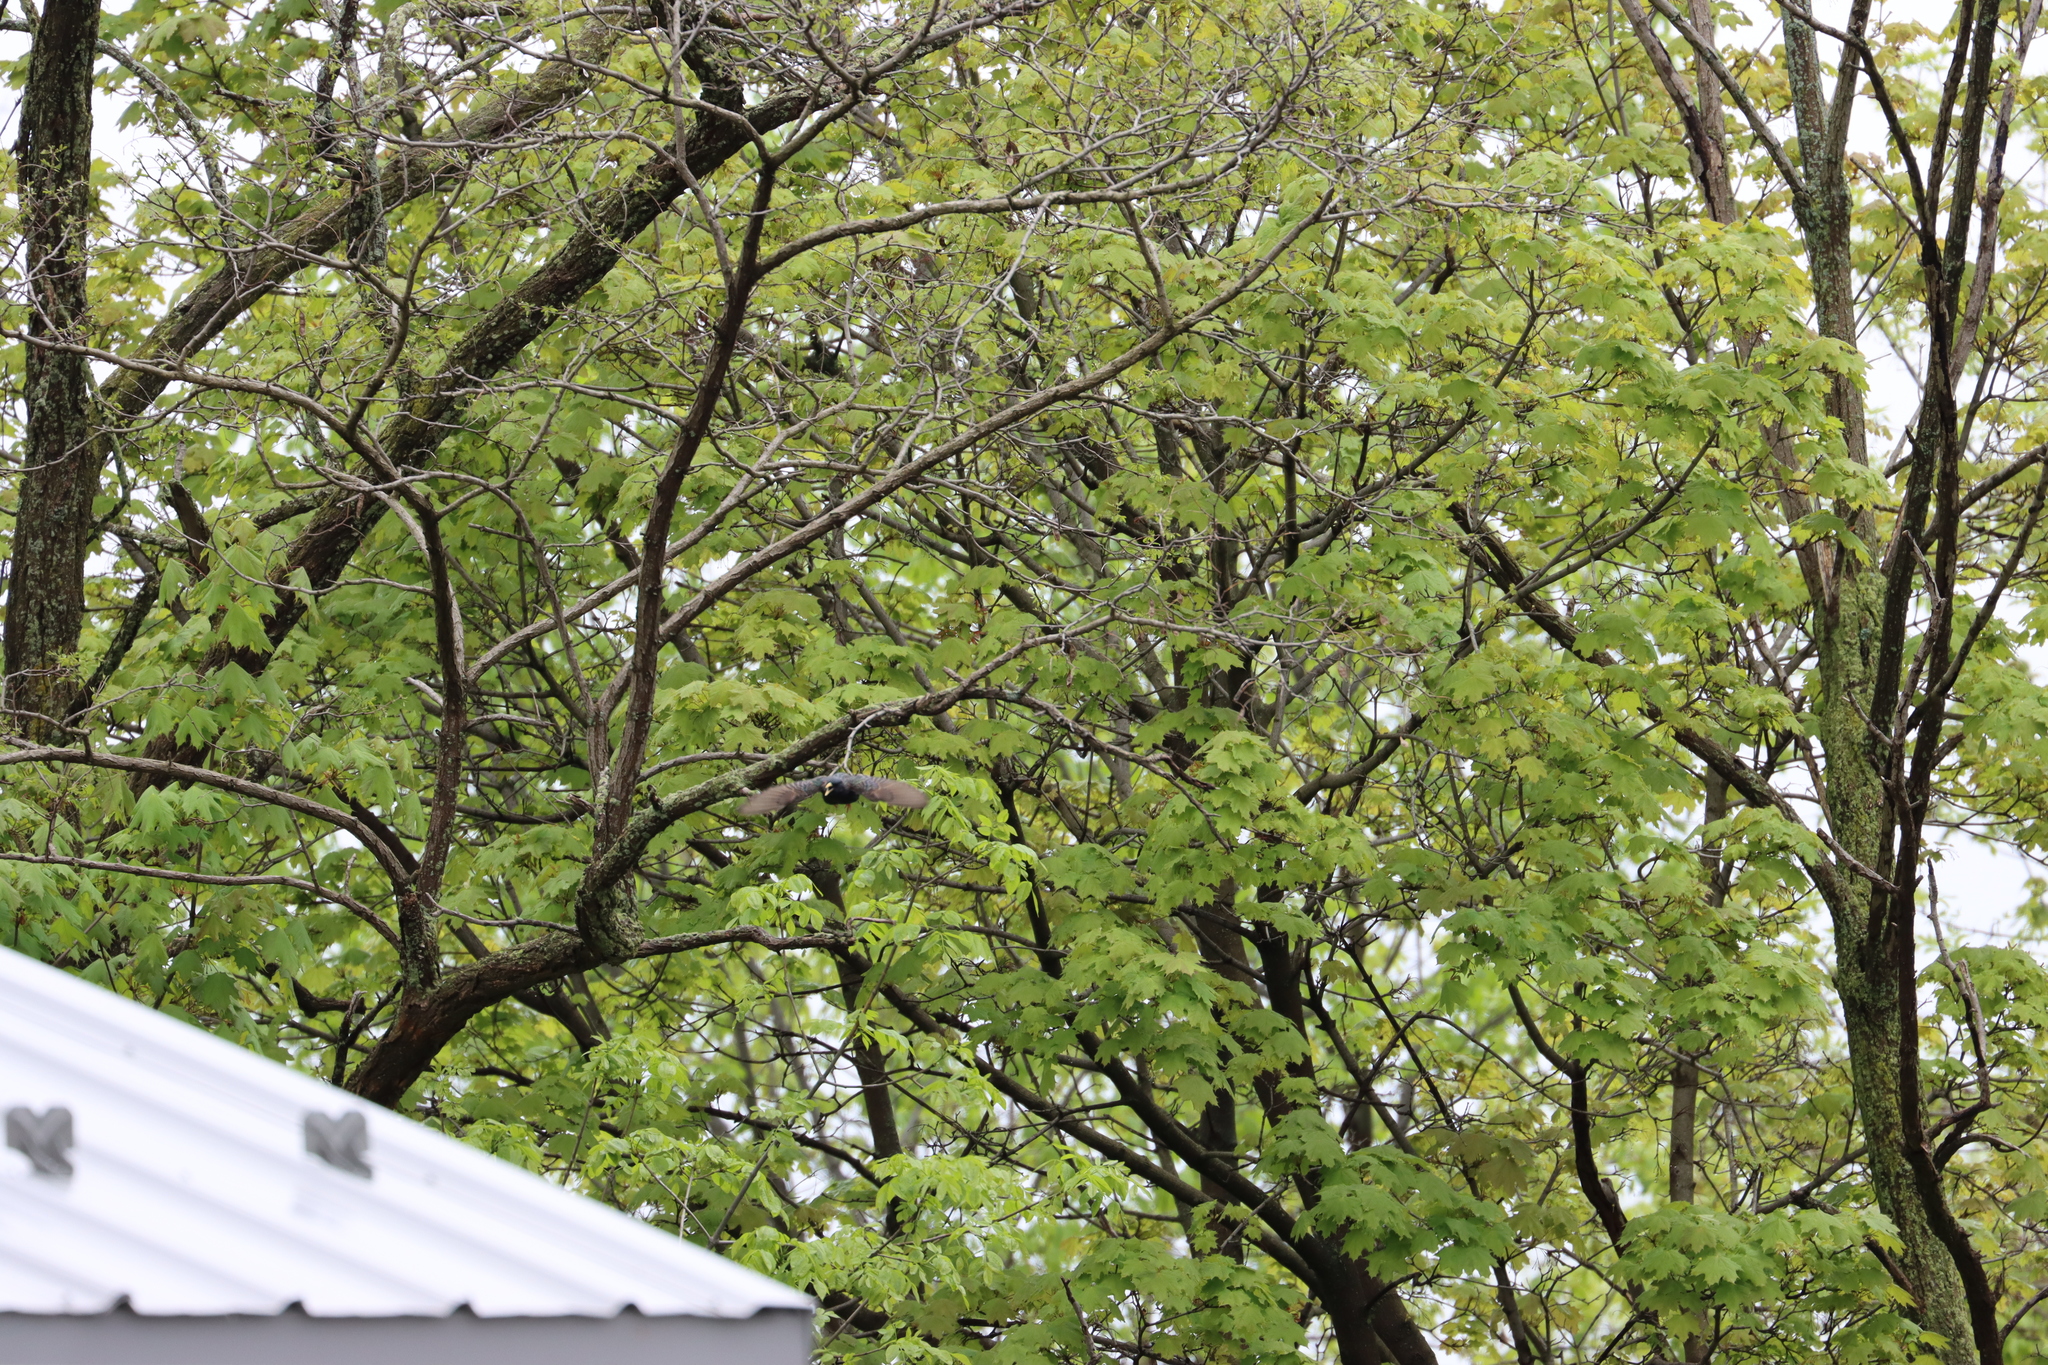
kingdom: Animalia
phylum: Chordata
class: Aves
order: Passeriformes
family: Sturnidae
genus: Sturnus
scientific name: Sturnus vulgaris
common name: Common starling
